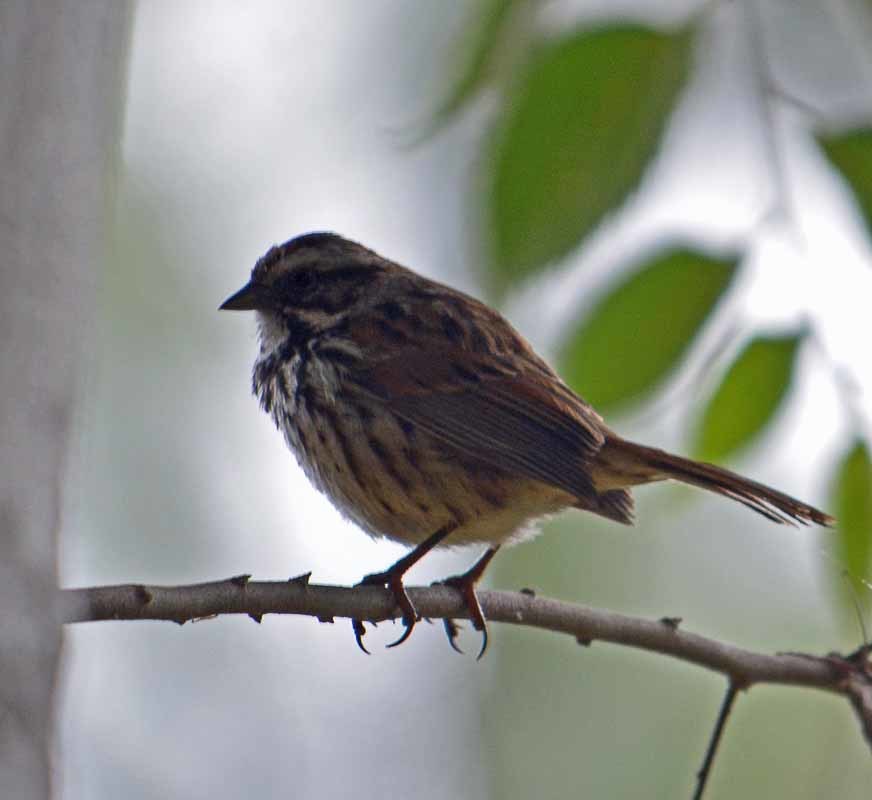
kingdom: Animalia
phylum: Chordata
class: Aves
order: Passeriformes
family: Passerellidae
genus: Melospiza
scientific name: Melospiza melodia
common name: Song sparrow
